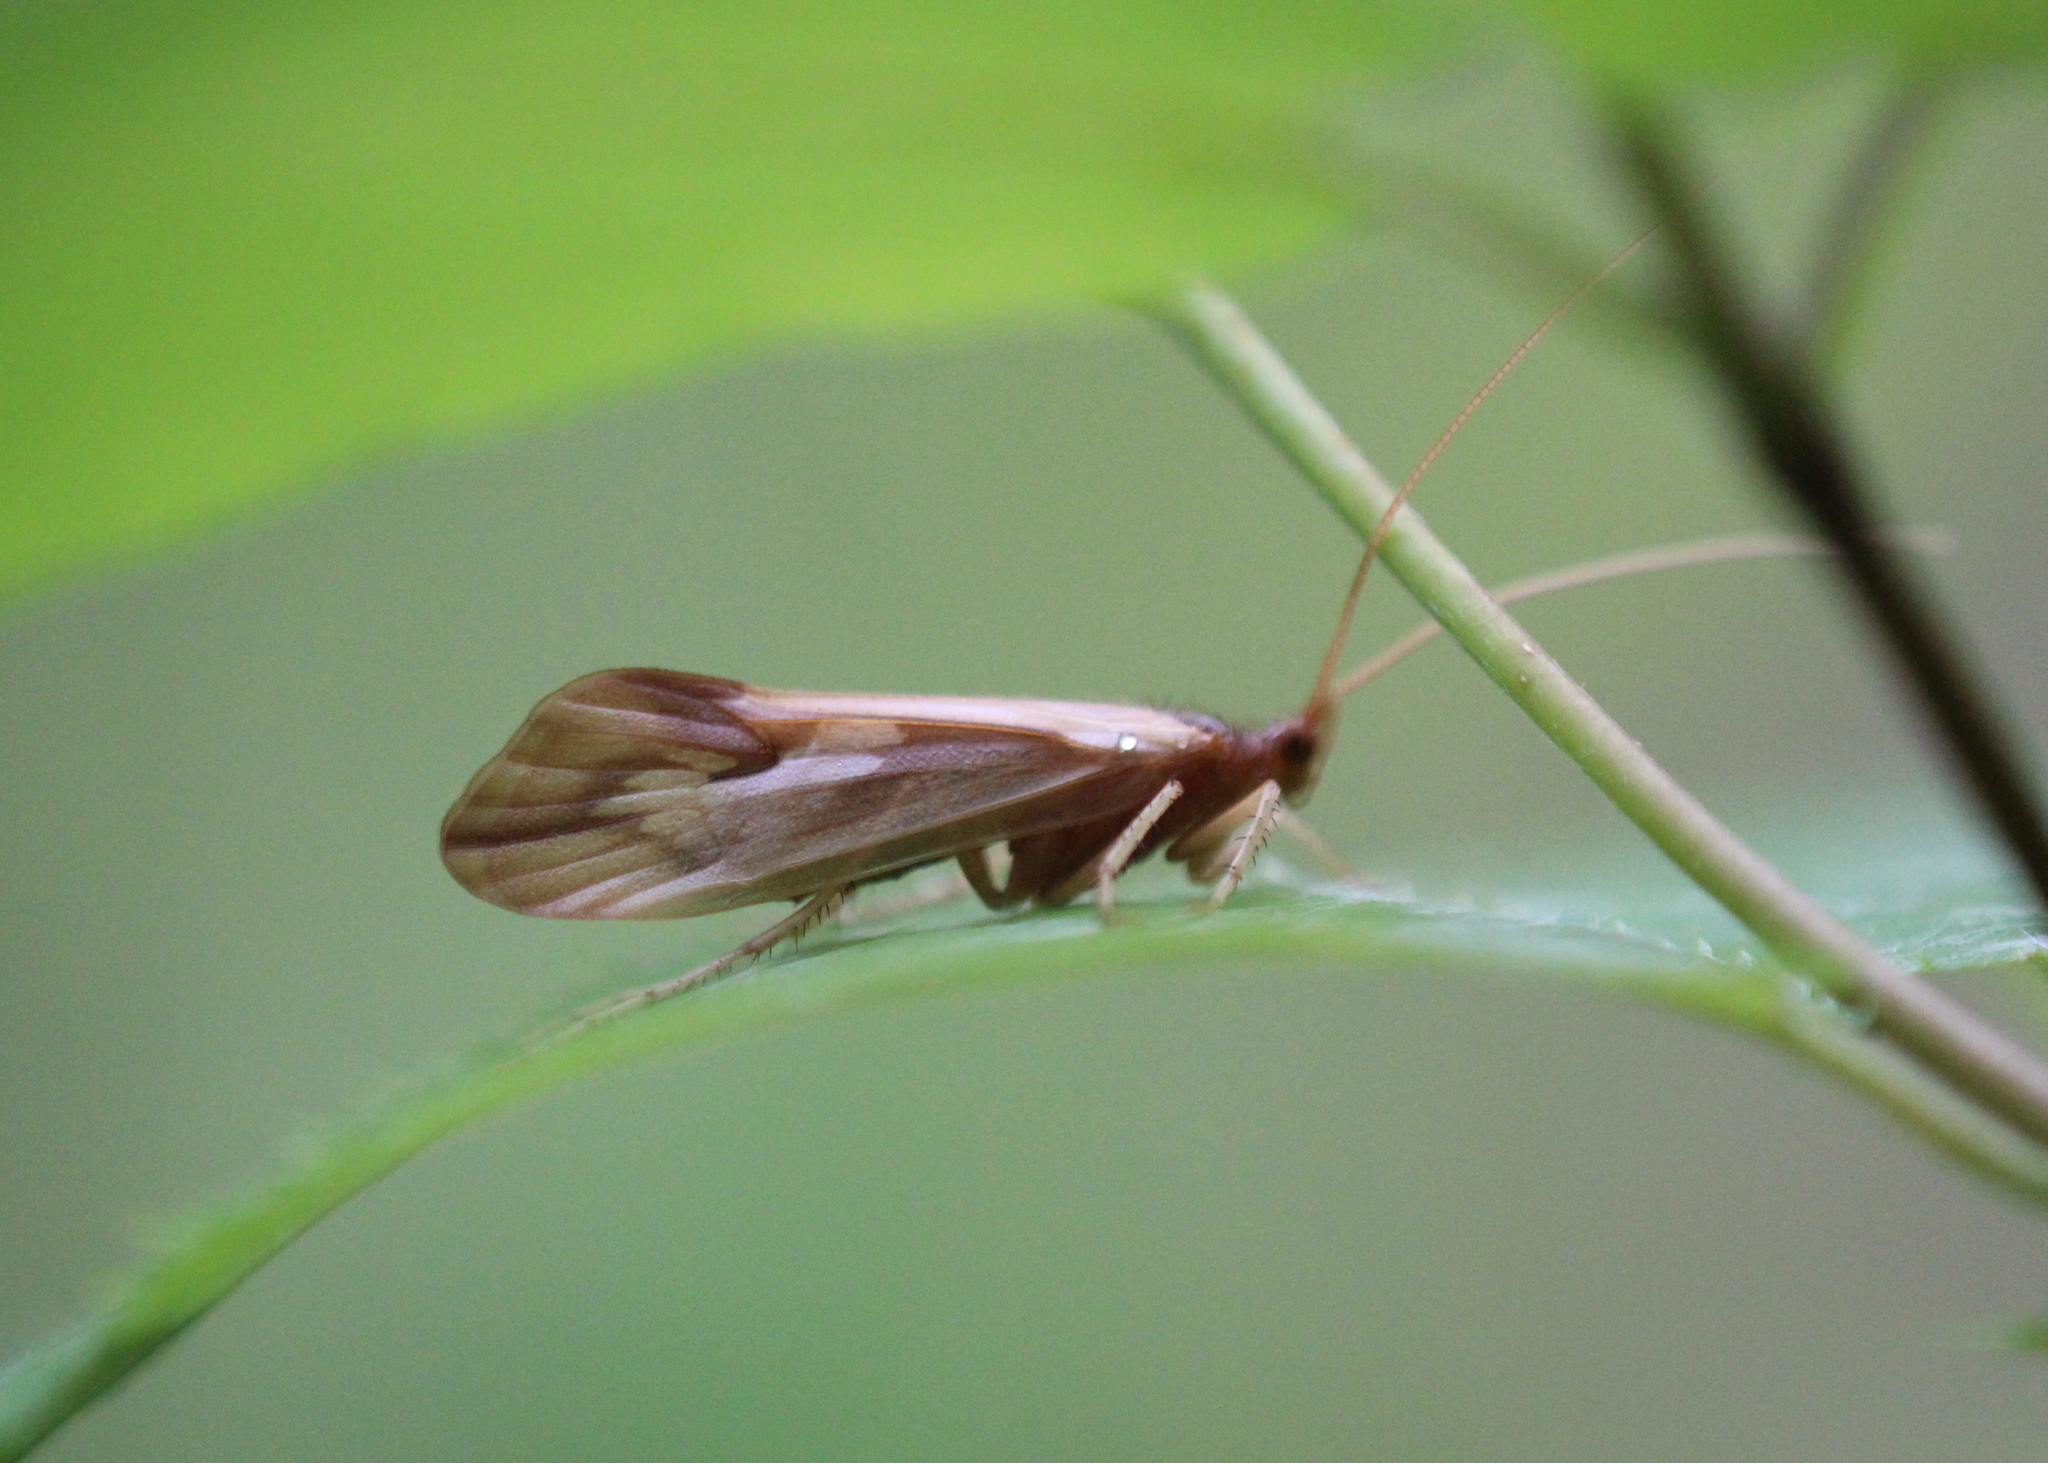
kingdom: Animalia
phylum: Arthropoda
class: Insecta
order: Trichoptera
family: Limnephilidae
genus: Platycentropus
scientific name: Platycentropus radiatus
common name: Chocolate-and-cream sedge
